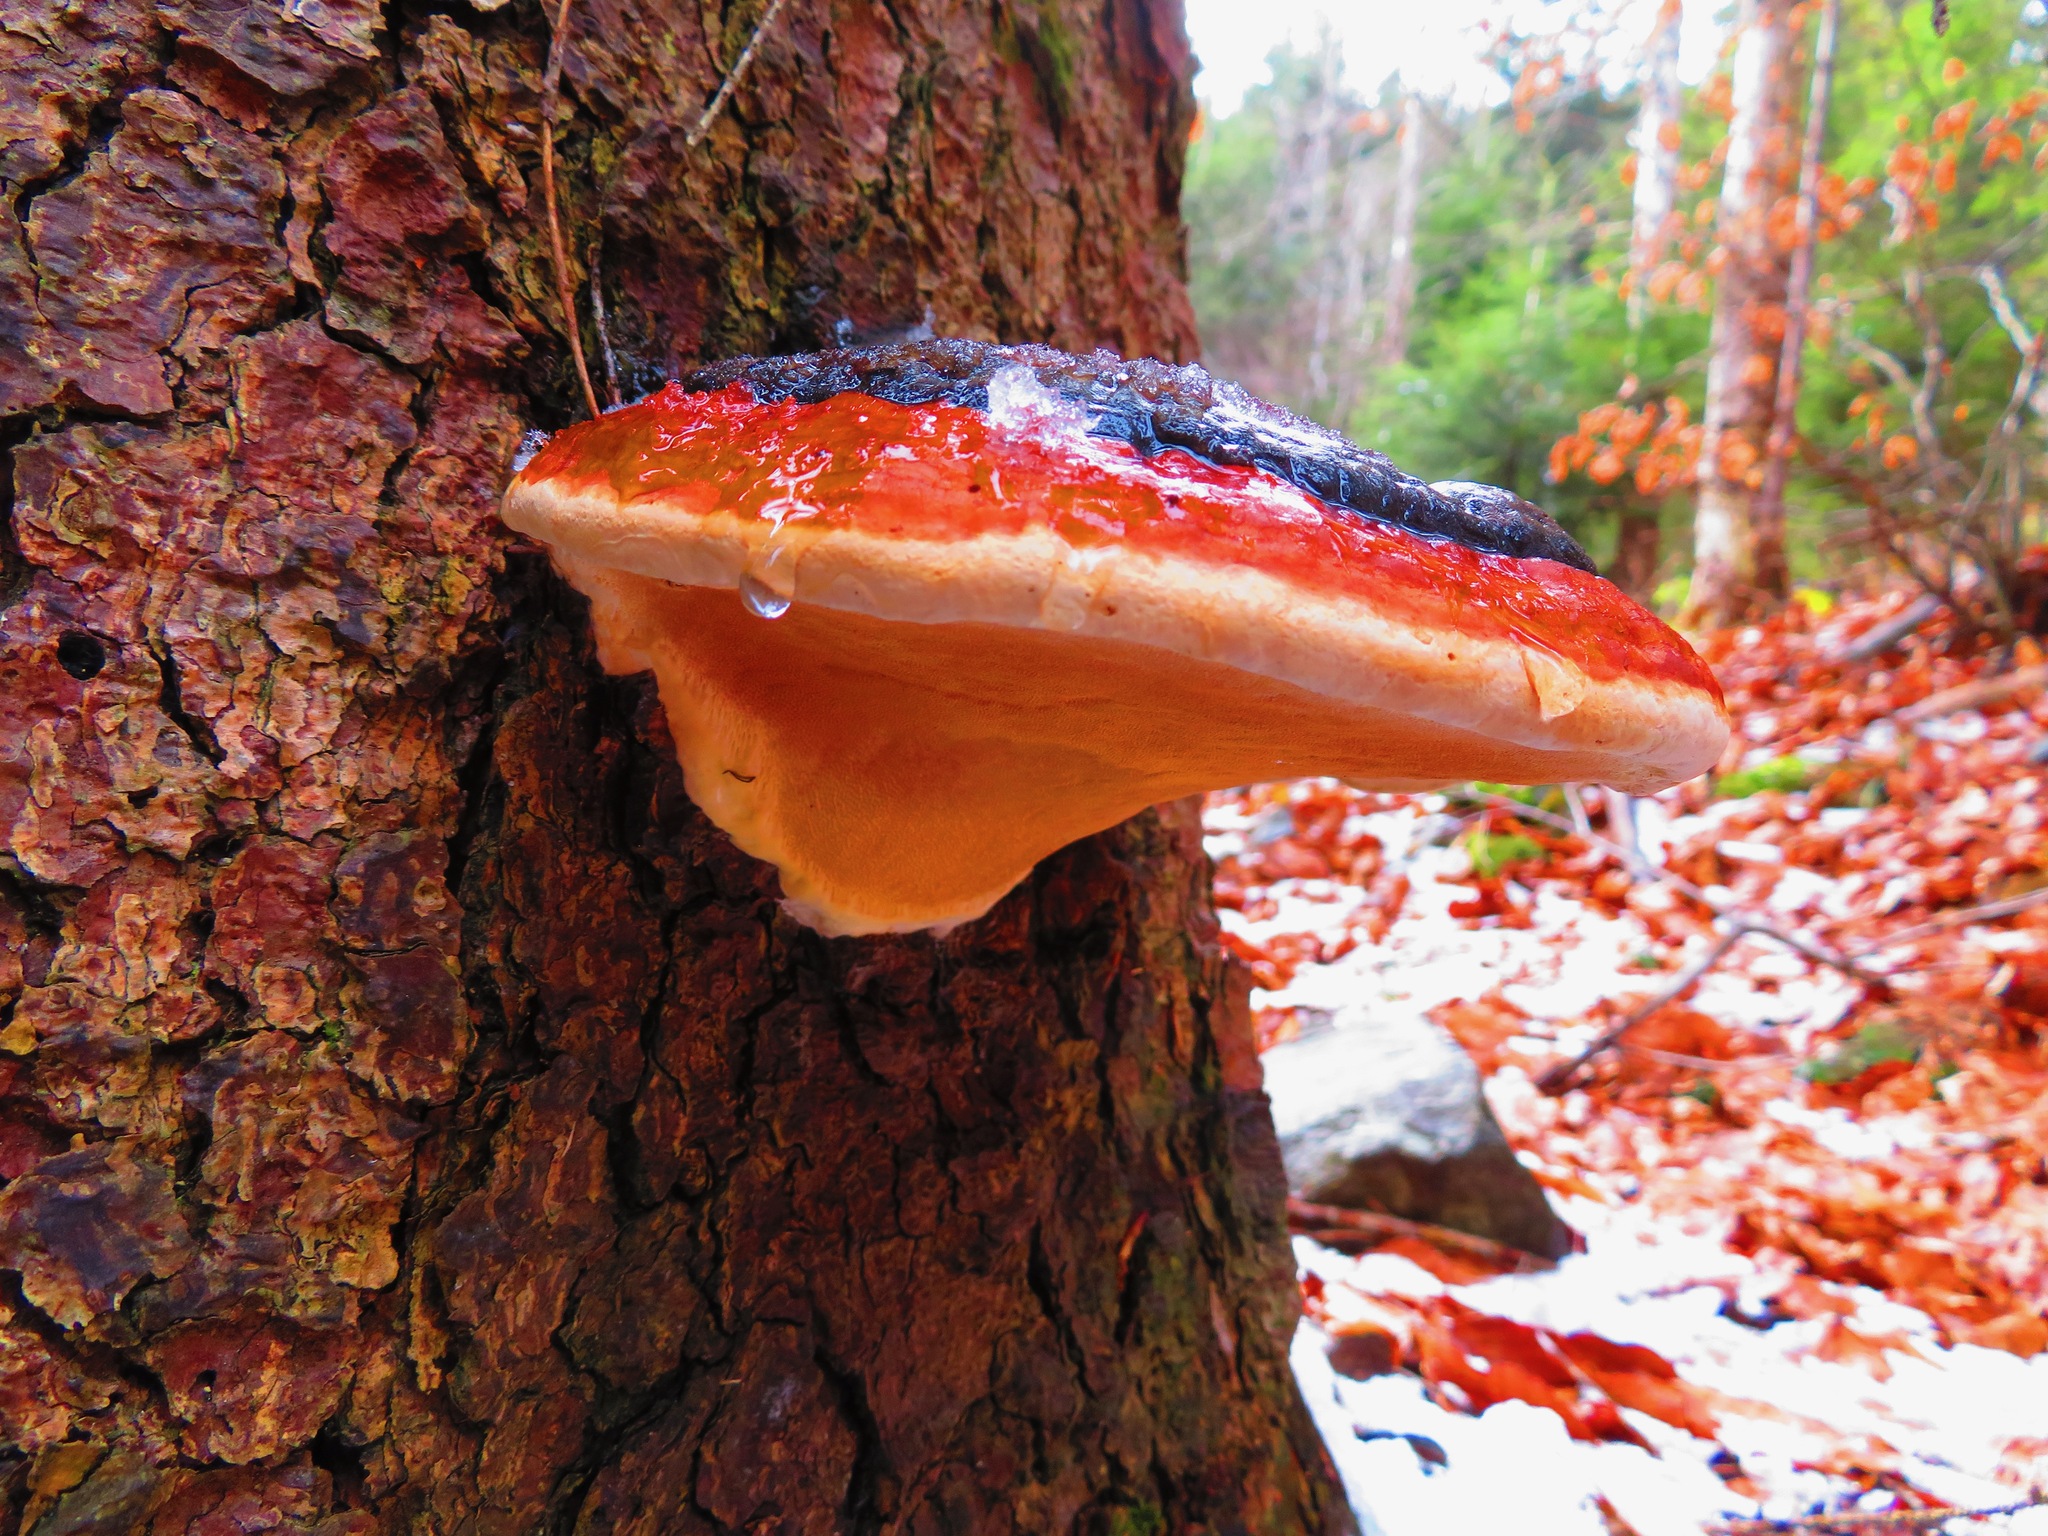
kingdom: Fungi
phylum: Basidiomycota
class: Agaricomycetes
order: Polyporales
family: Fomitopsidaceae
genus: Fomitopsis
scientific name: Fomitopsis pinicola
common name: Red-belted bracket
